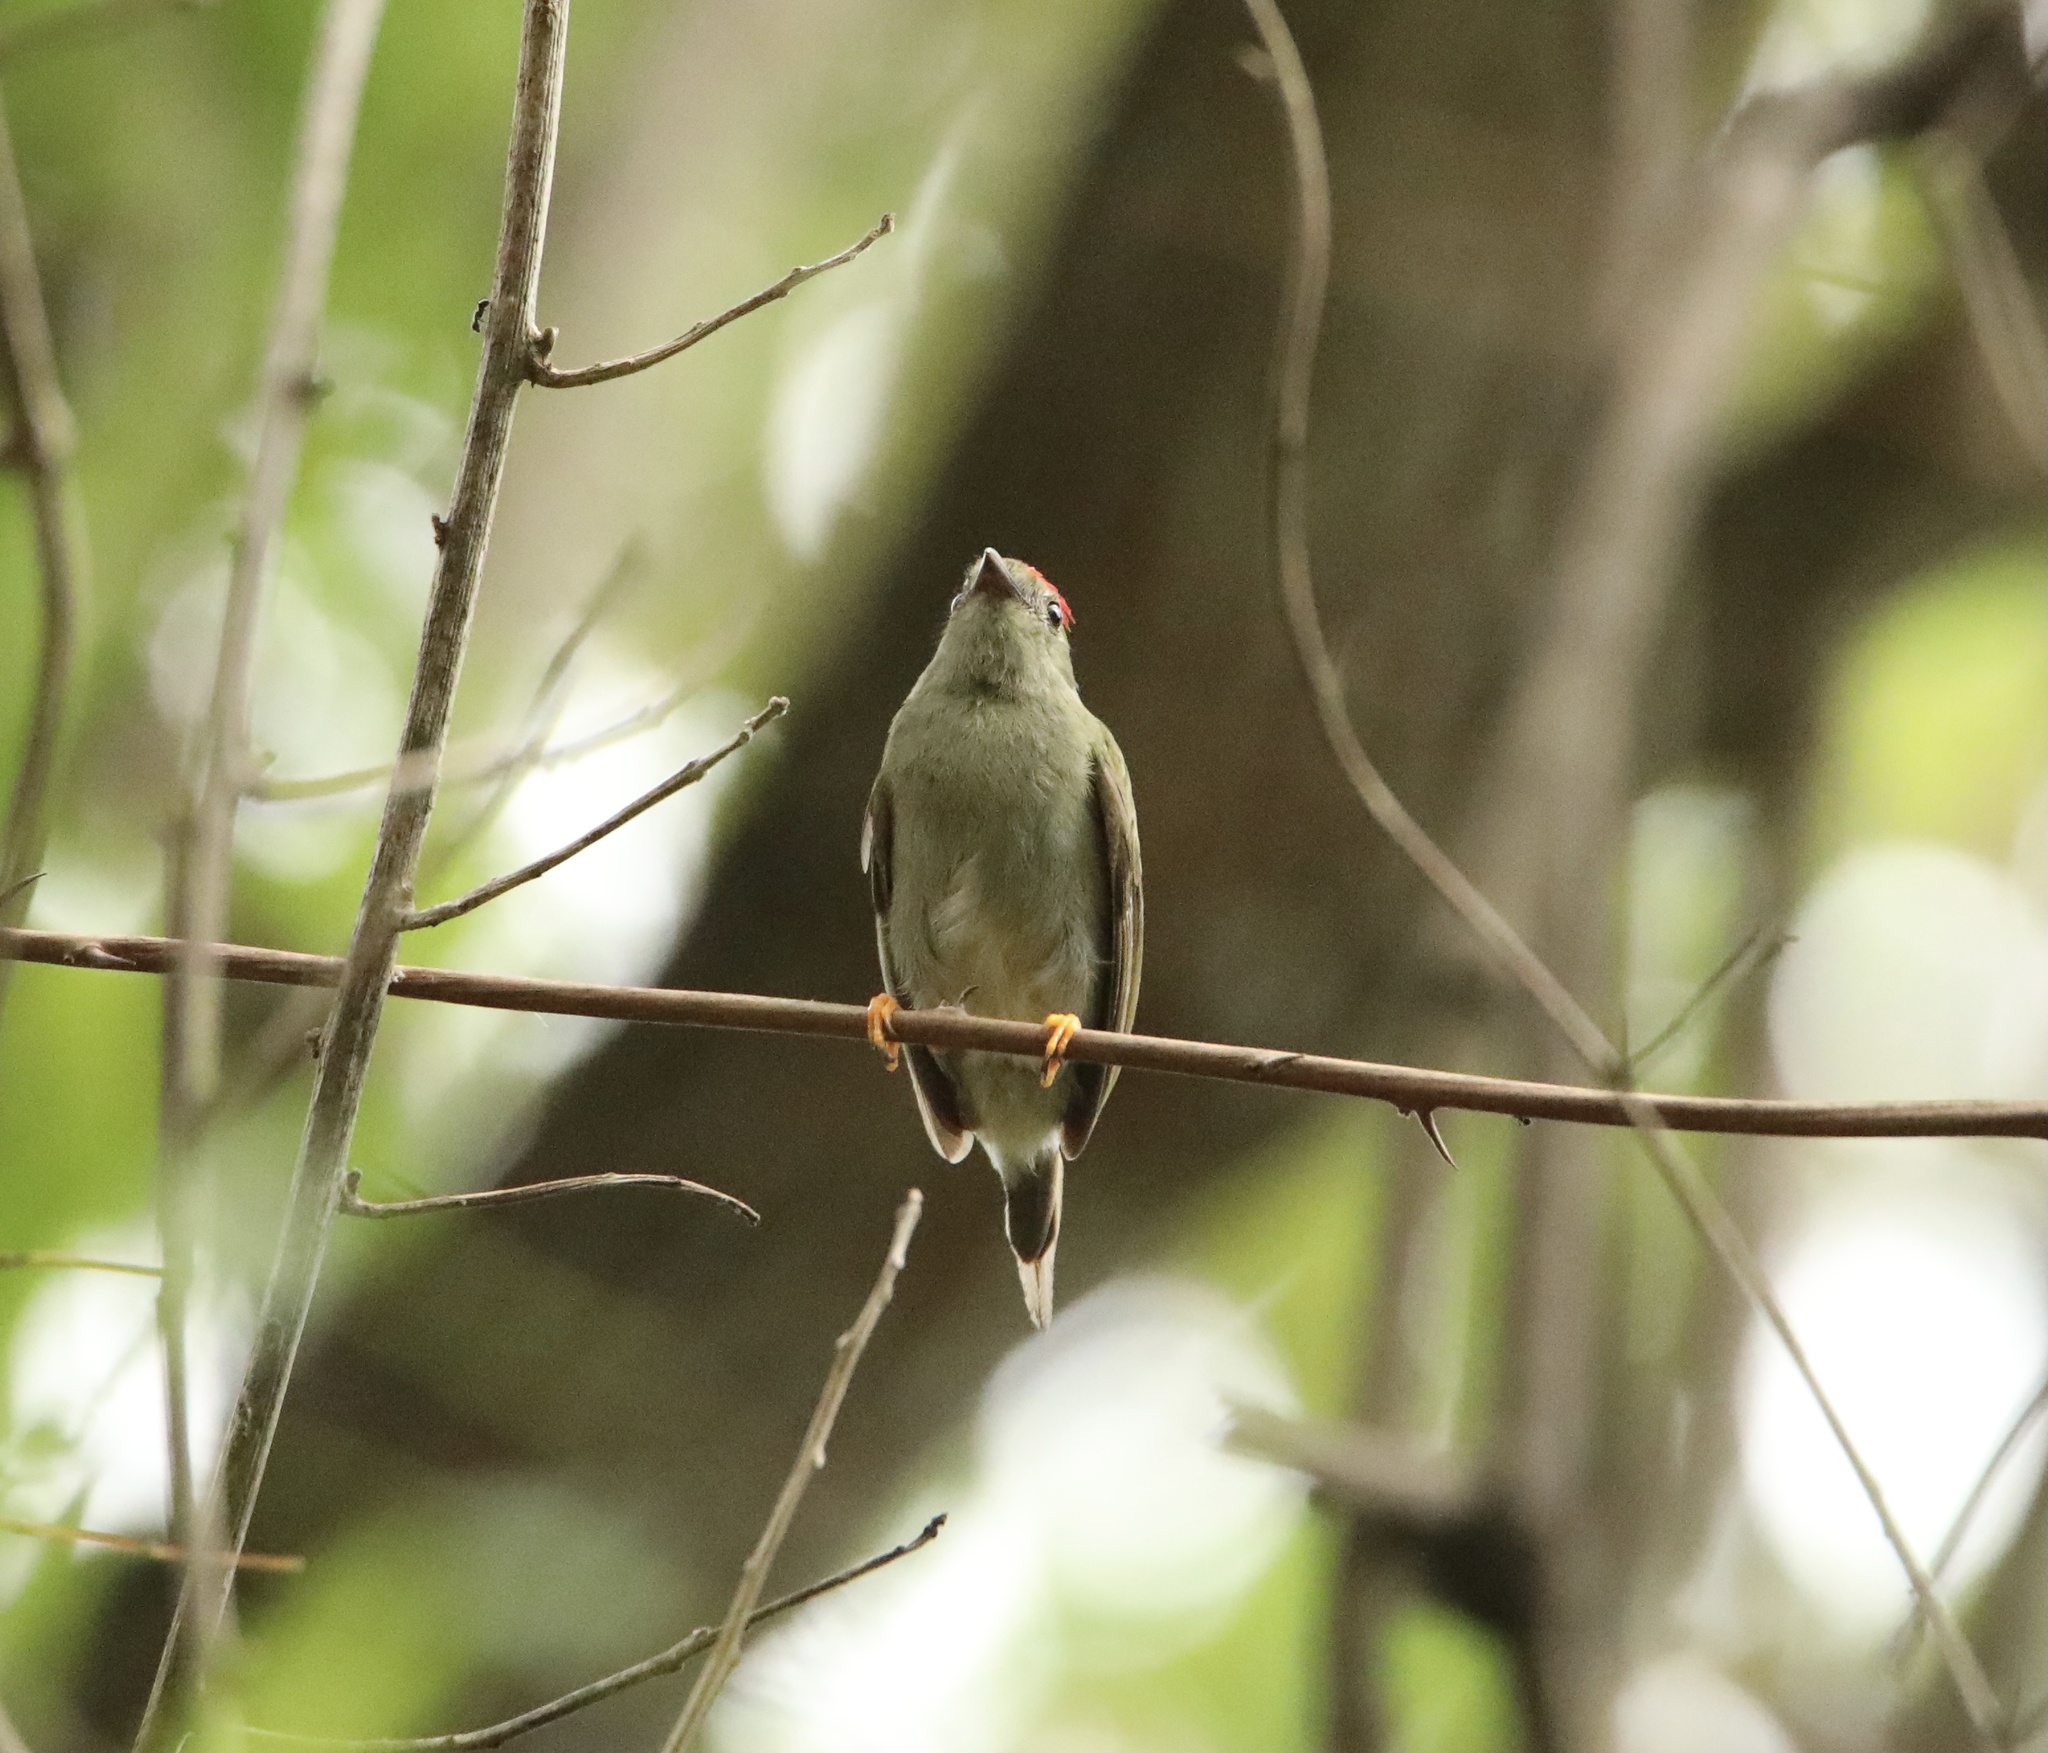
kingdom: Animalia
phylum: Chordata
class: Aves
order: Passeriformes
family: Pipridae
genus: Chiroxiphia
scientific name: Chiroxiphia lanceolata
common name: Lance-tailed manakin
